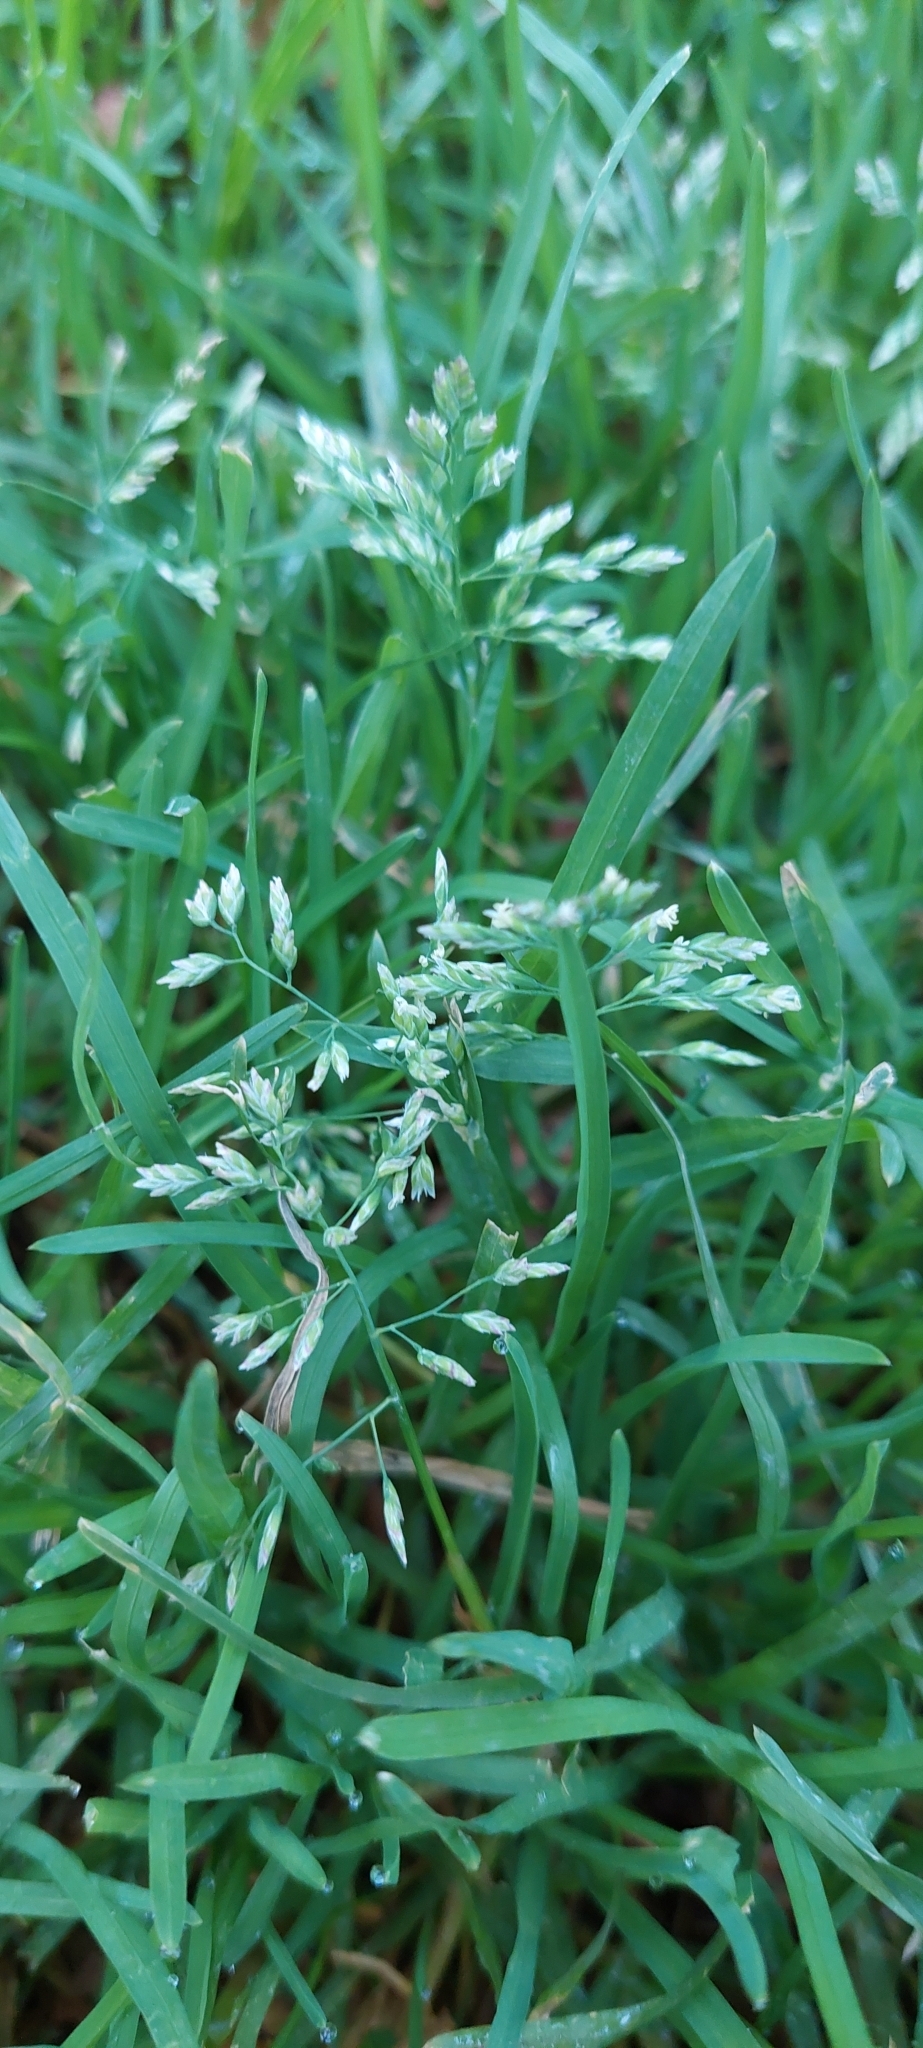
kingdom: Plantae
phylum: Tracheophyta
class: Liliopsida
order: Poales
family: Poaceae
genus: Poa
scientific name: Poa annua
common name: Annual bluegrass
